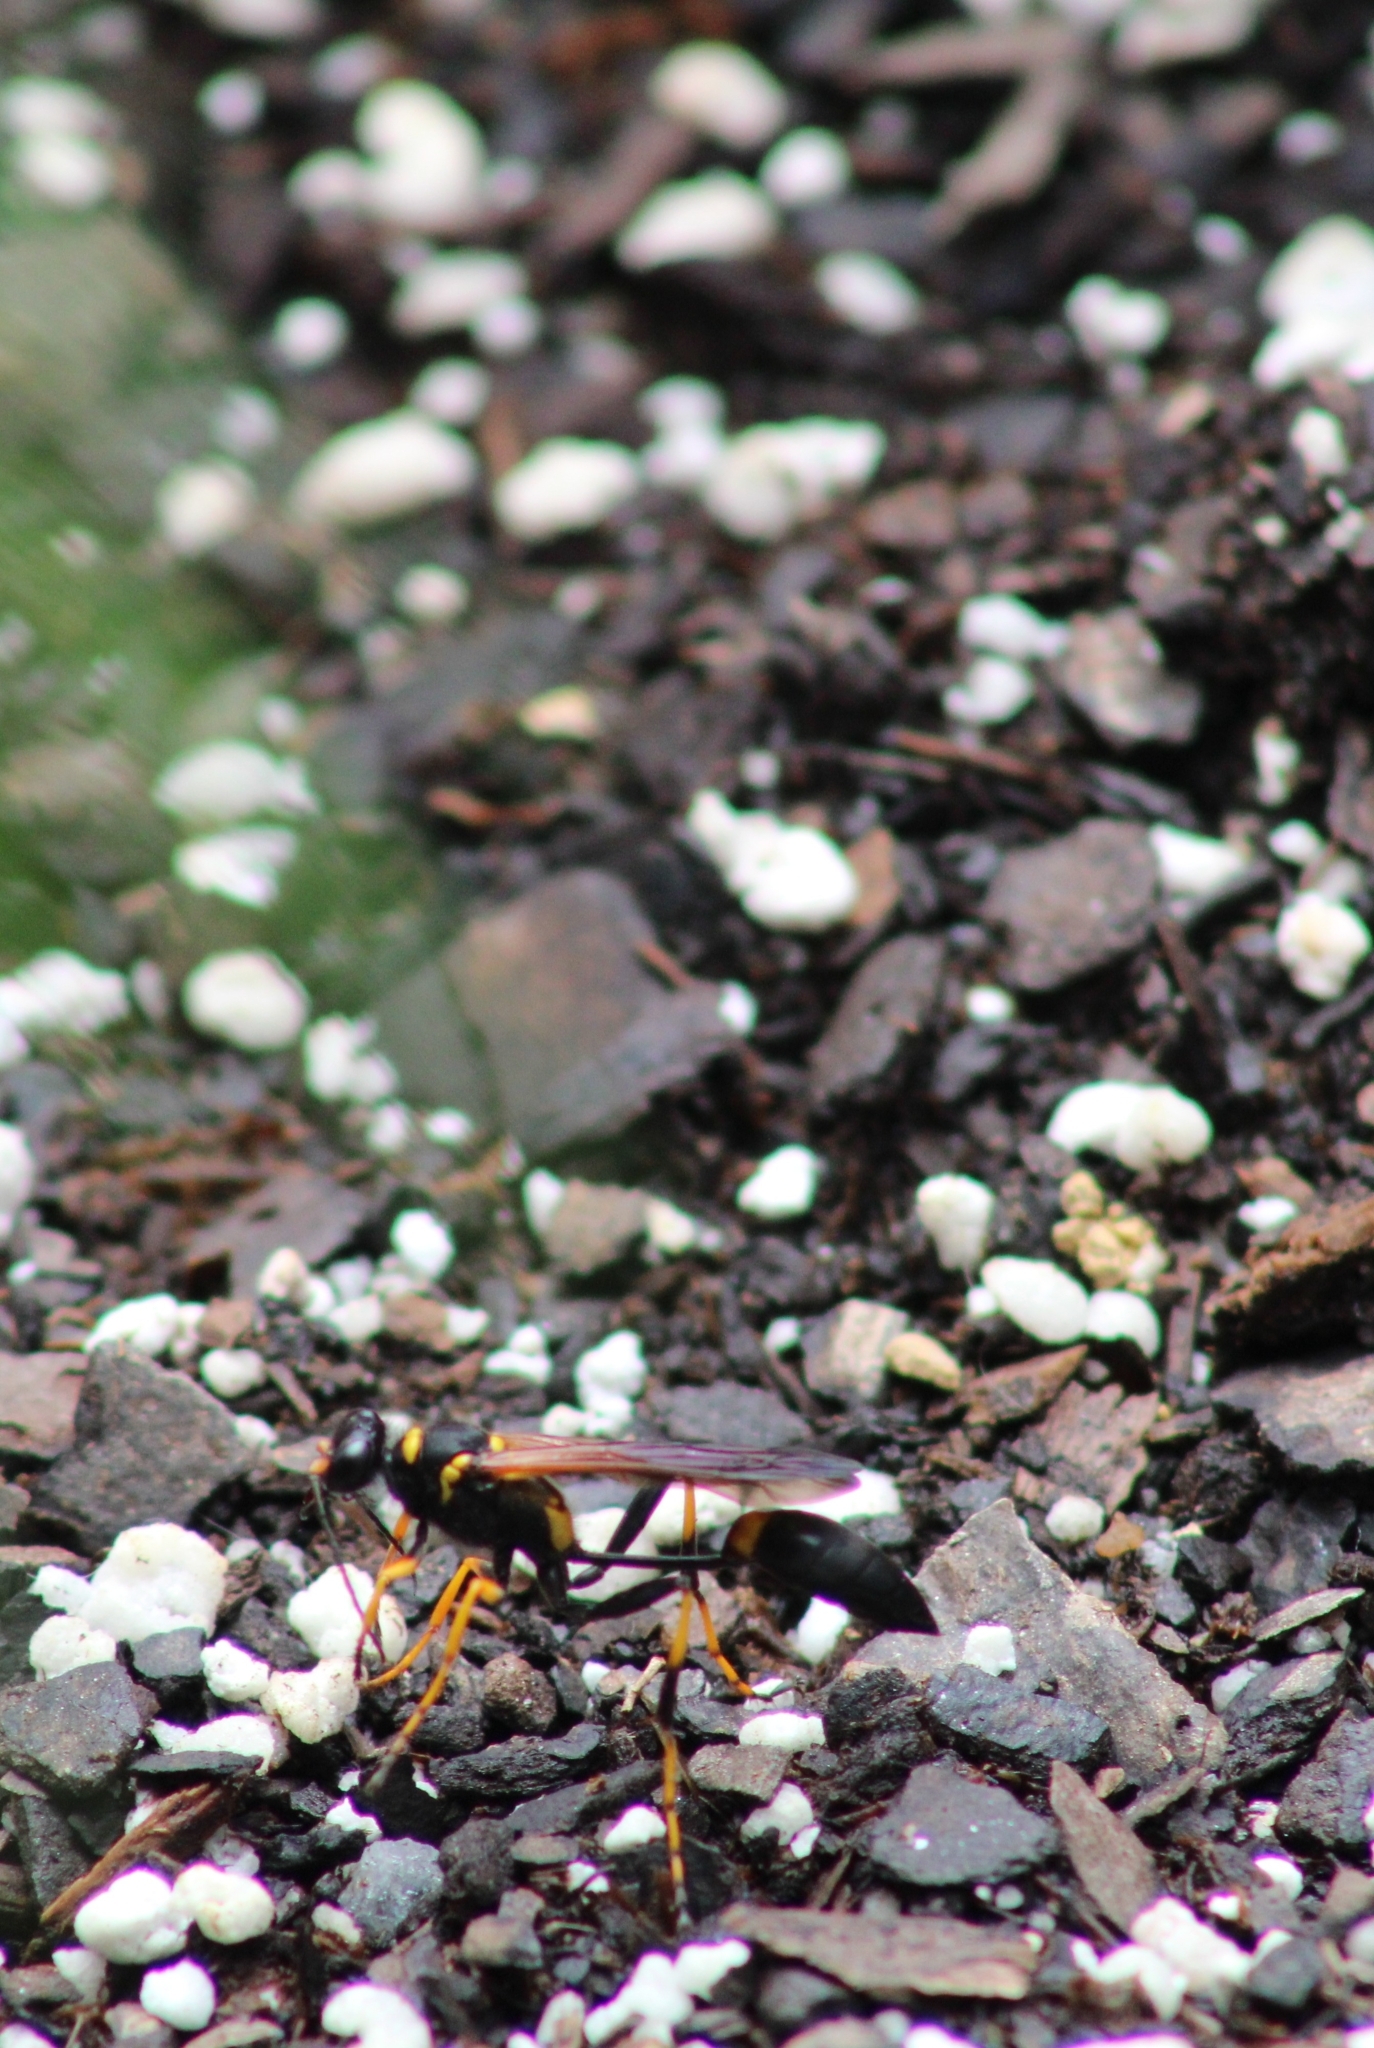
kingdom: Animalia
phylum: Arthropoda
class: Insecta
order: Hymenoptera
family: Sphecidae
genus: Sceliphron
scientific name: Sceliphron caementarium
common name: Mud dauber
